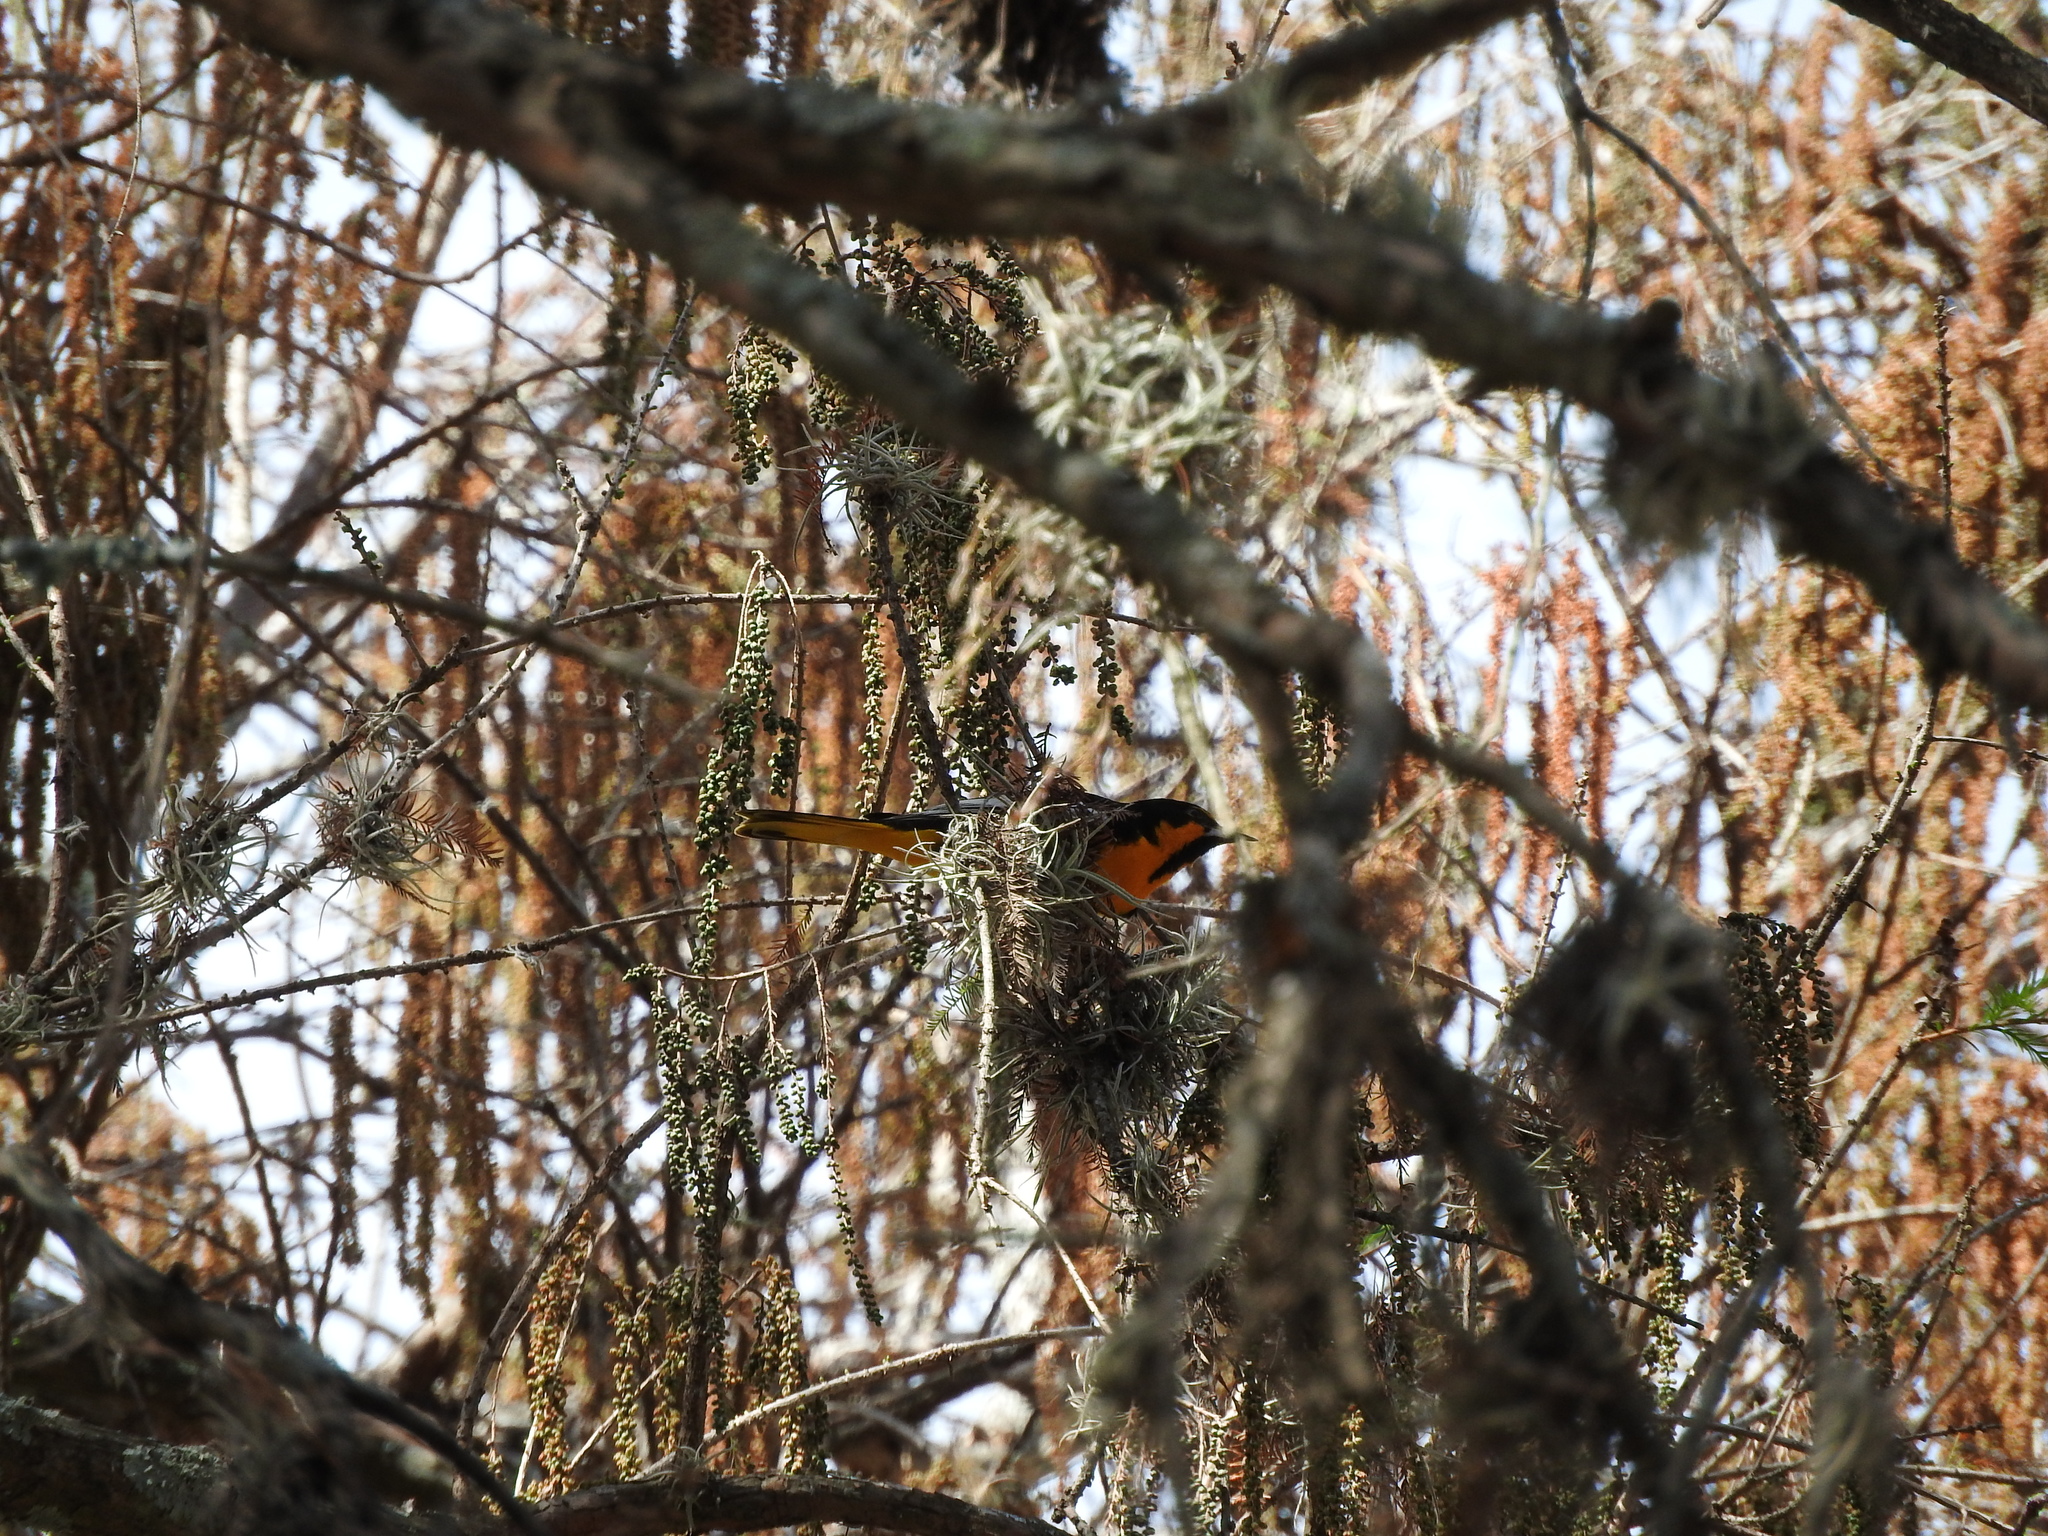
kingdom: Animalia
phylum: Chordata
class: Aves
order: Passeriformes
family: Icteridae
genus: Icterus
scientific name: Icterus abeillei
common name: Black-backed oriole
